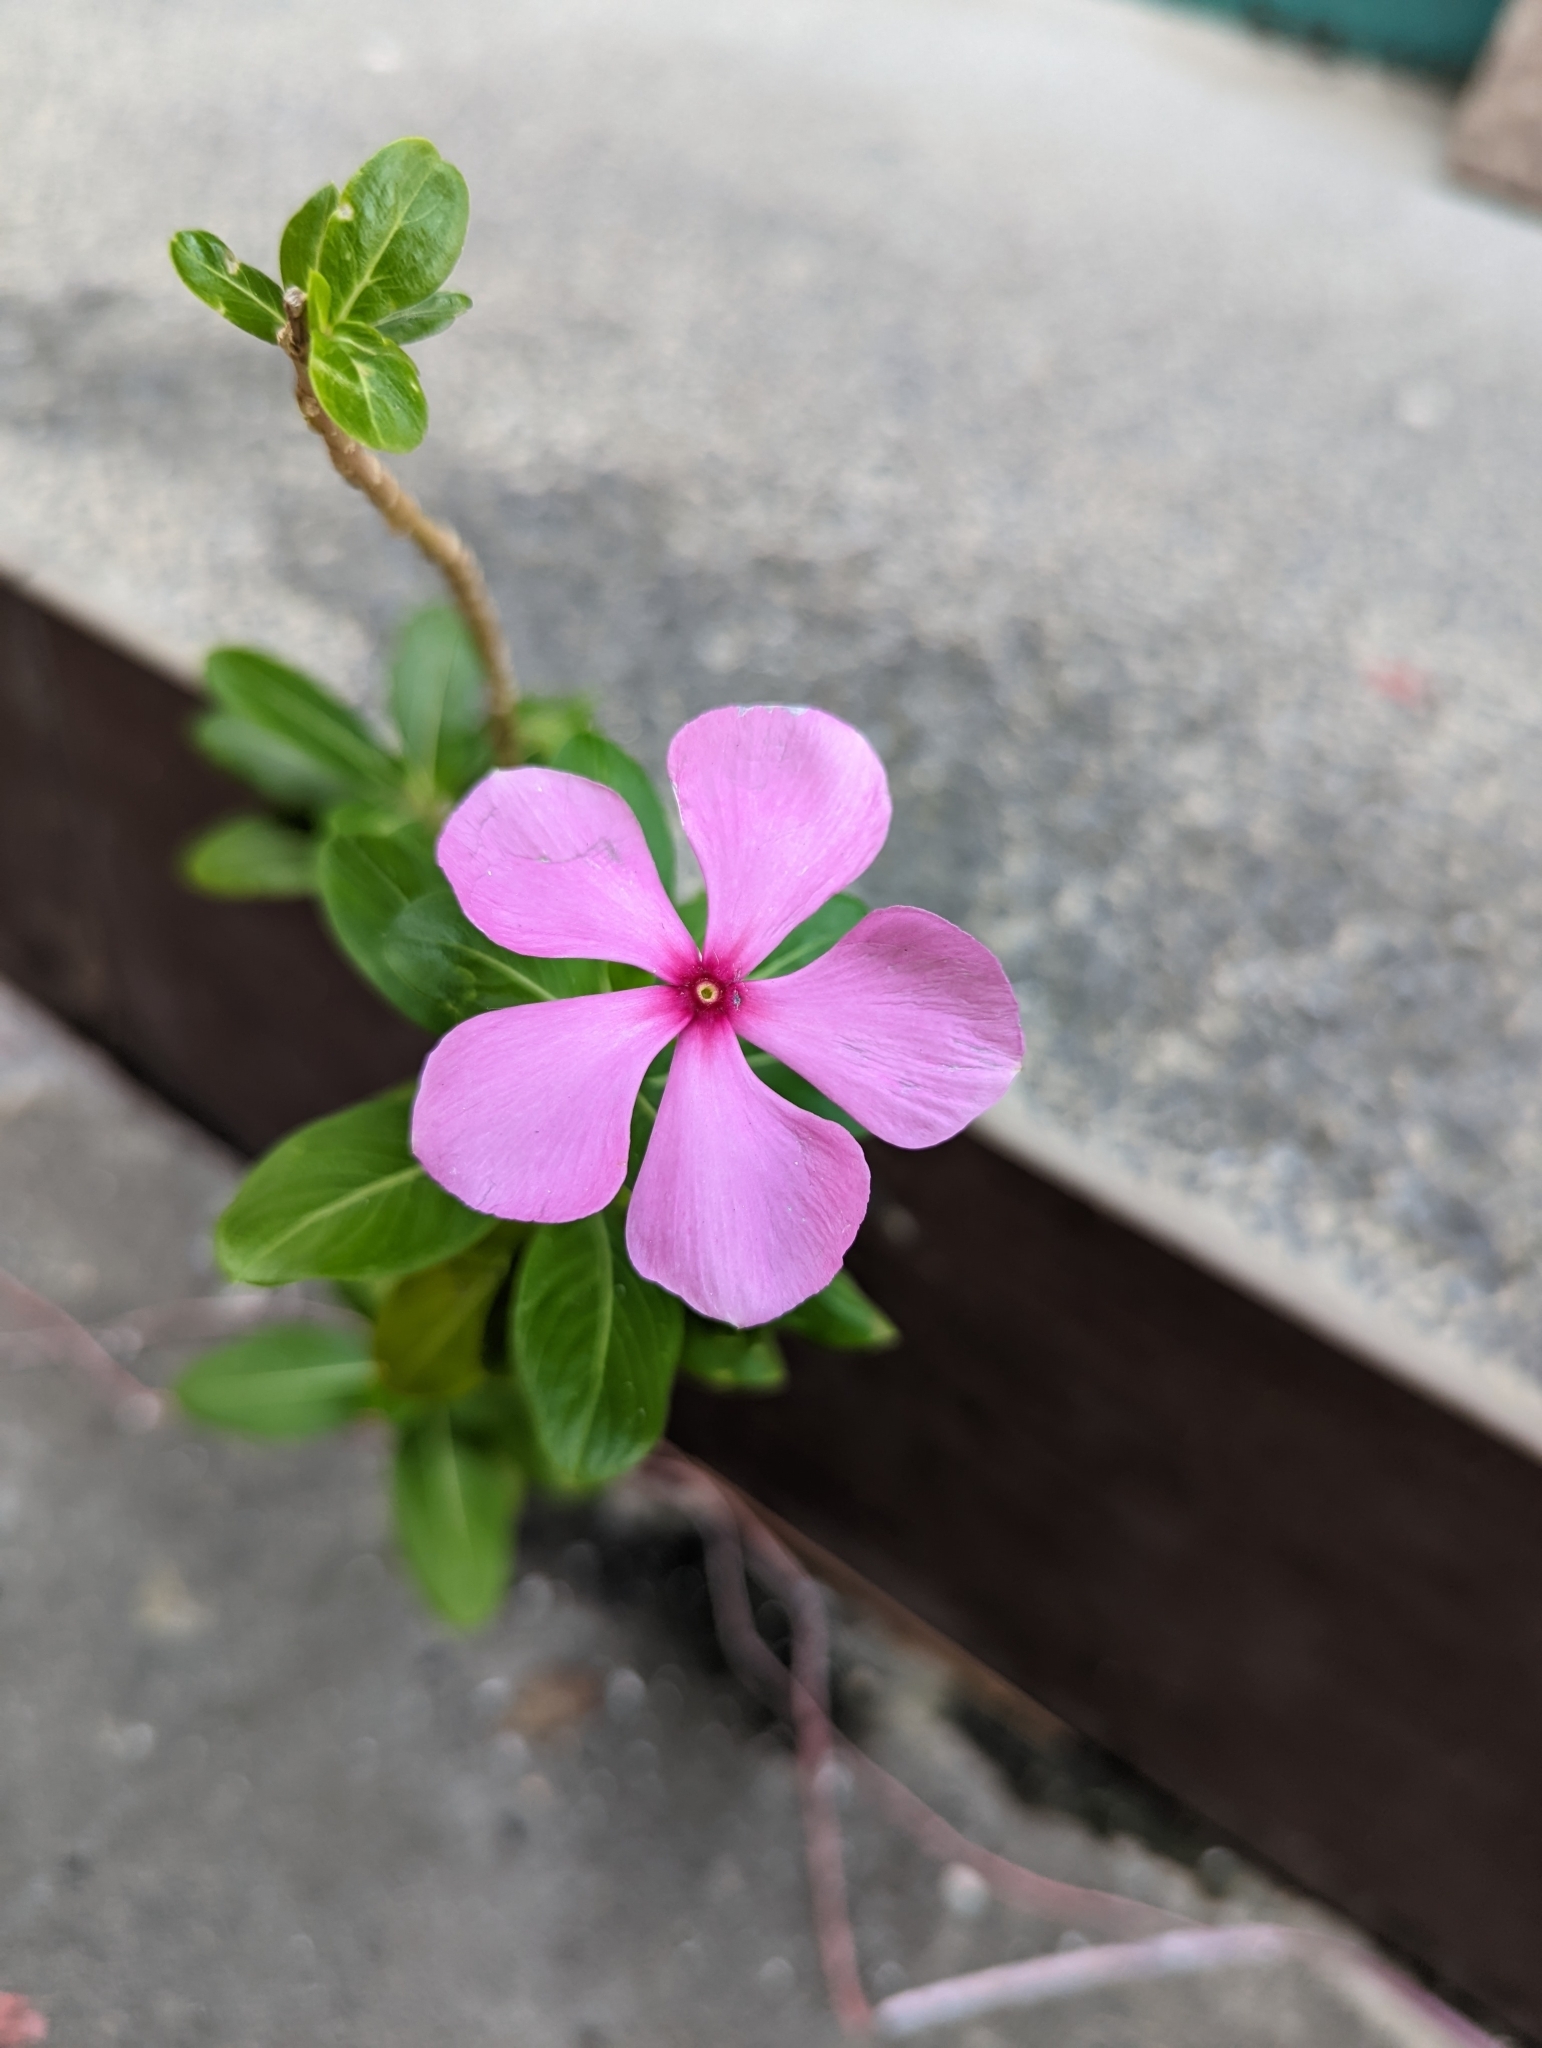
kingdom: Plantae
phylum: Tracheophyta
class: Magnoliopsida
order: Gentianales
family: Apocynaceae
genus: Catharanthus
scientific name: Catharanthus roseus
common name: Madagascar periwinkle
